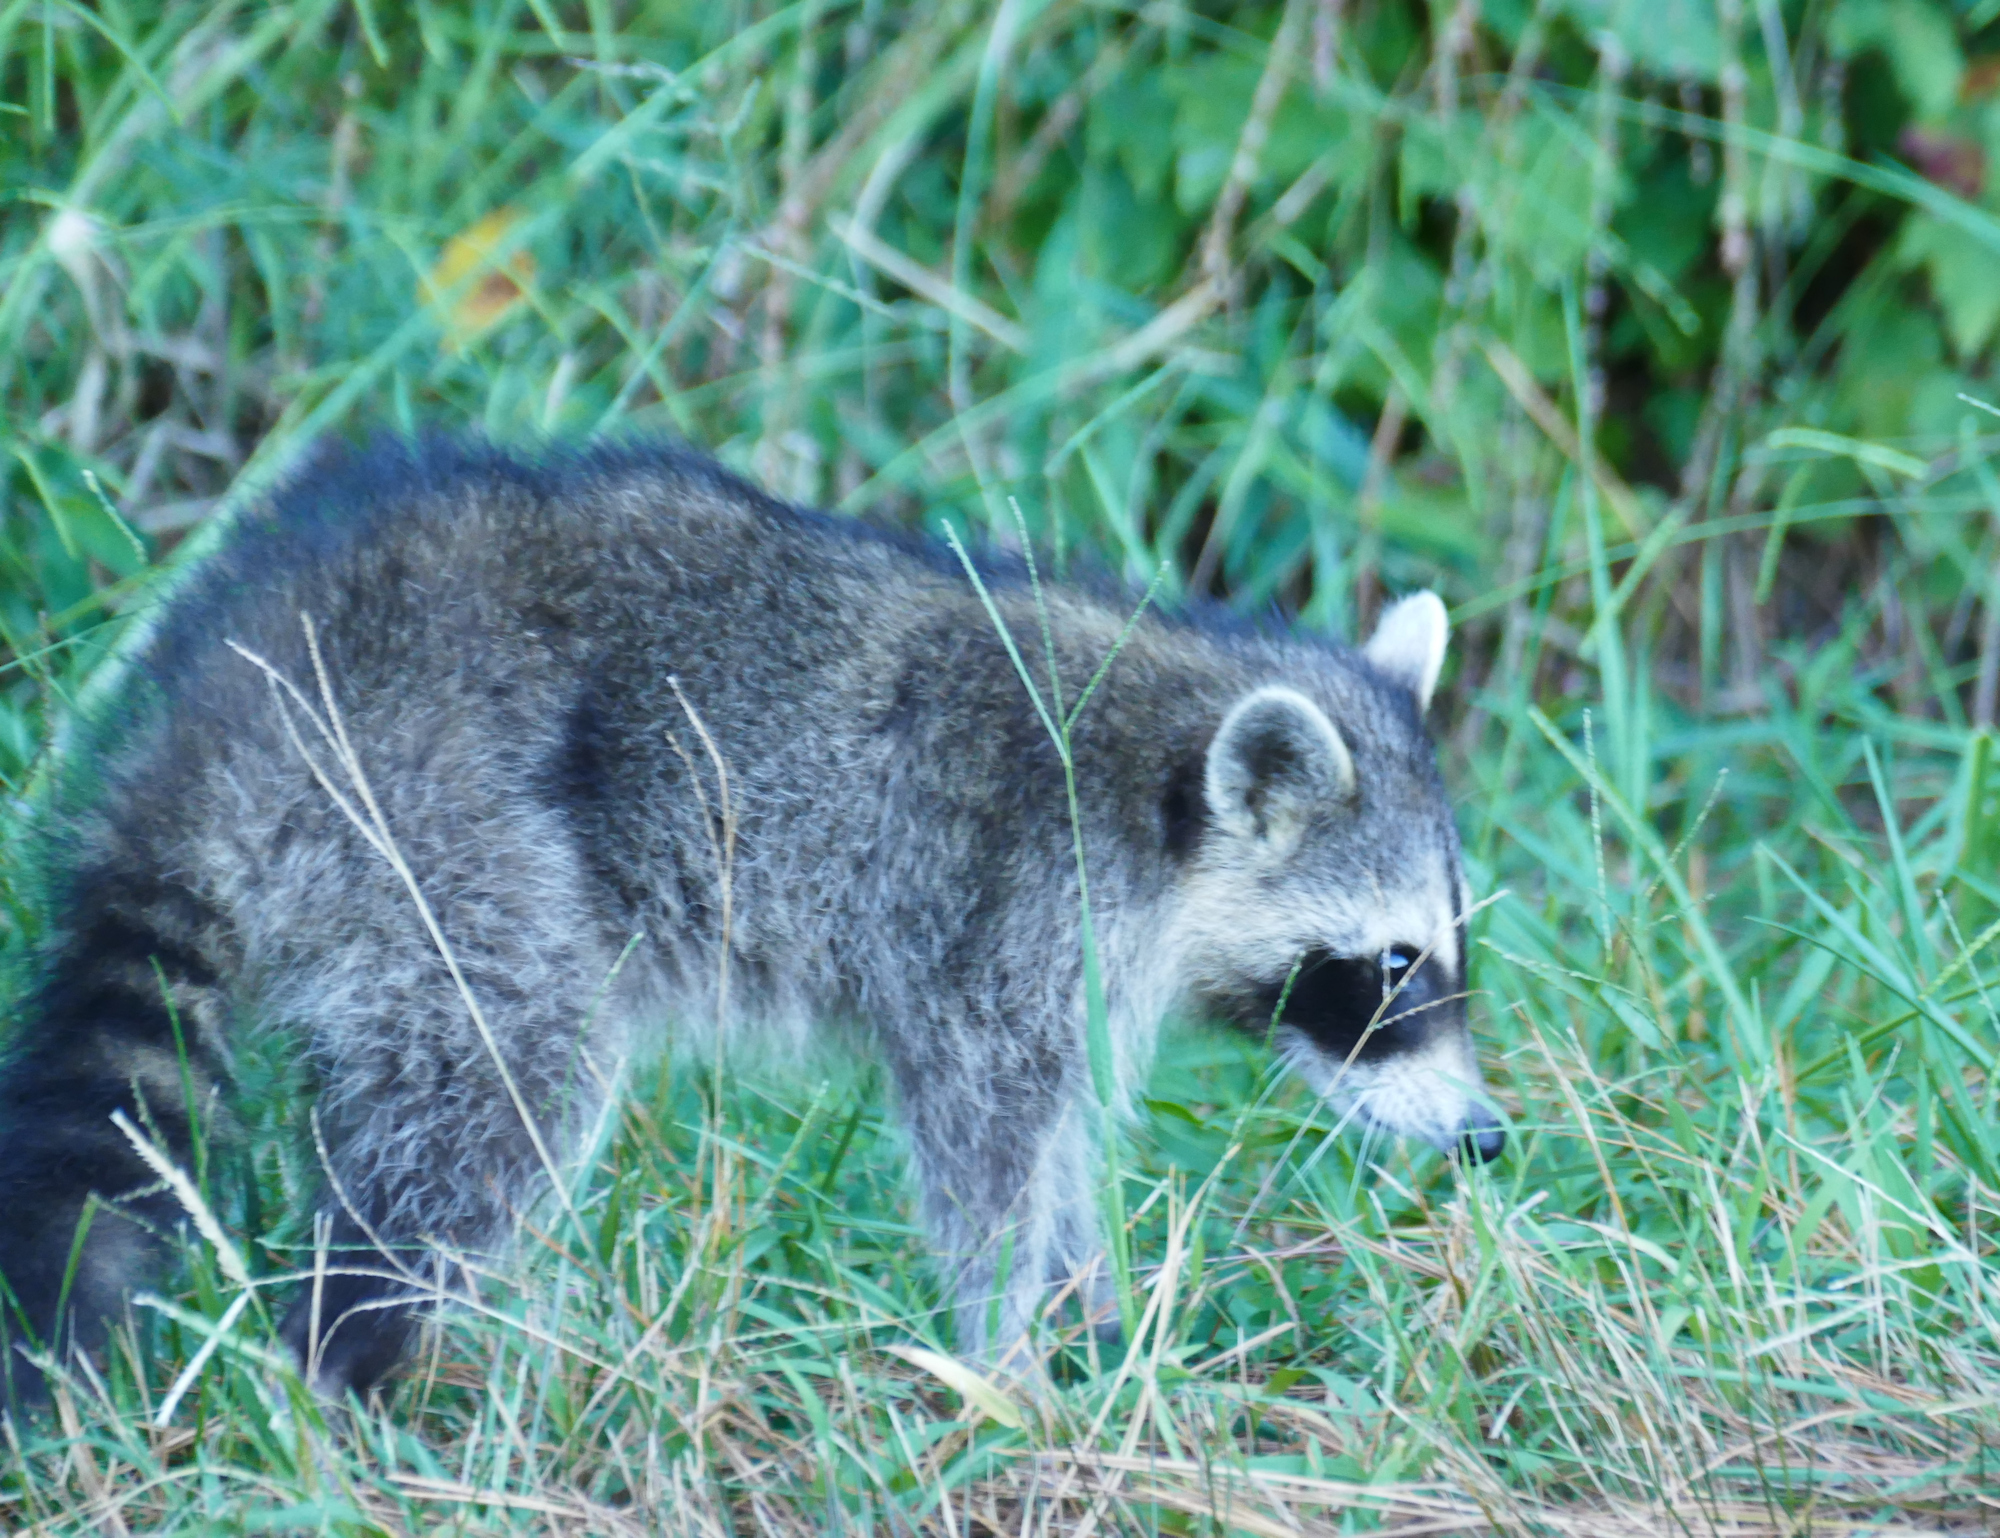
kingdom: Animalia
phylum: Chordata
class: Mammalia
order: Carnivora
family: Procyonidae
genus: Procyon
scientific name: Procyon lotor
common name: Raccoon
